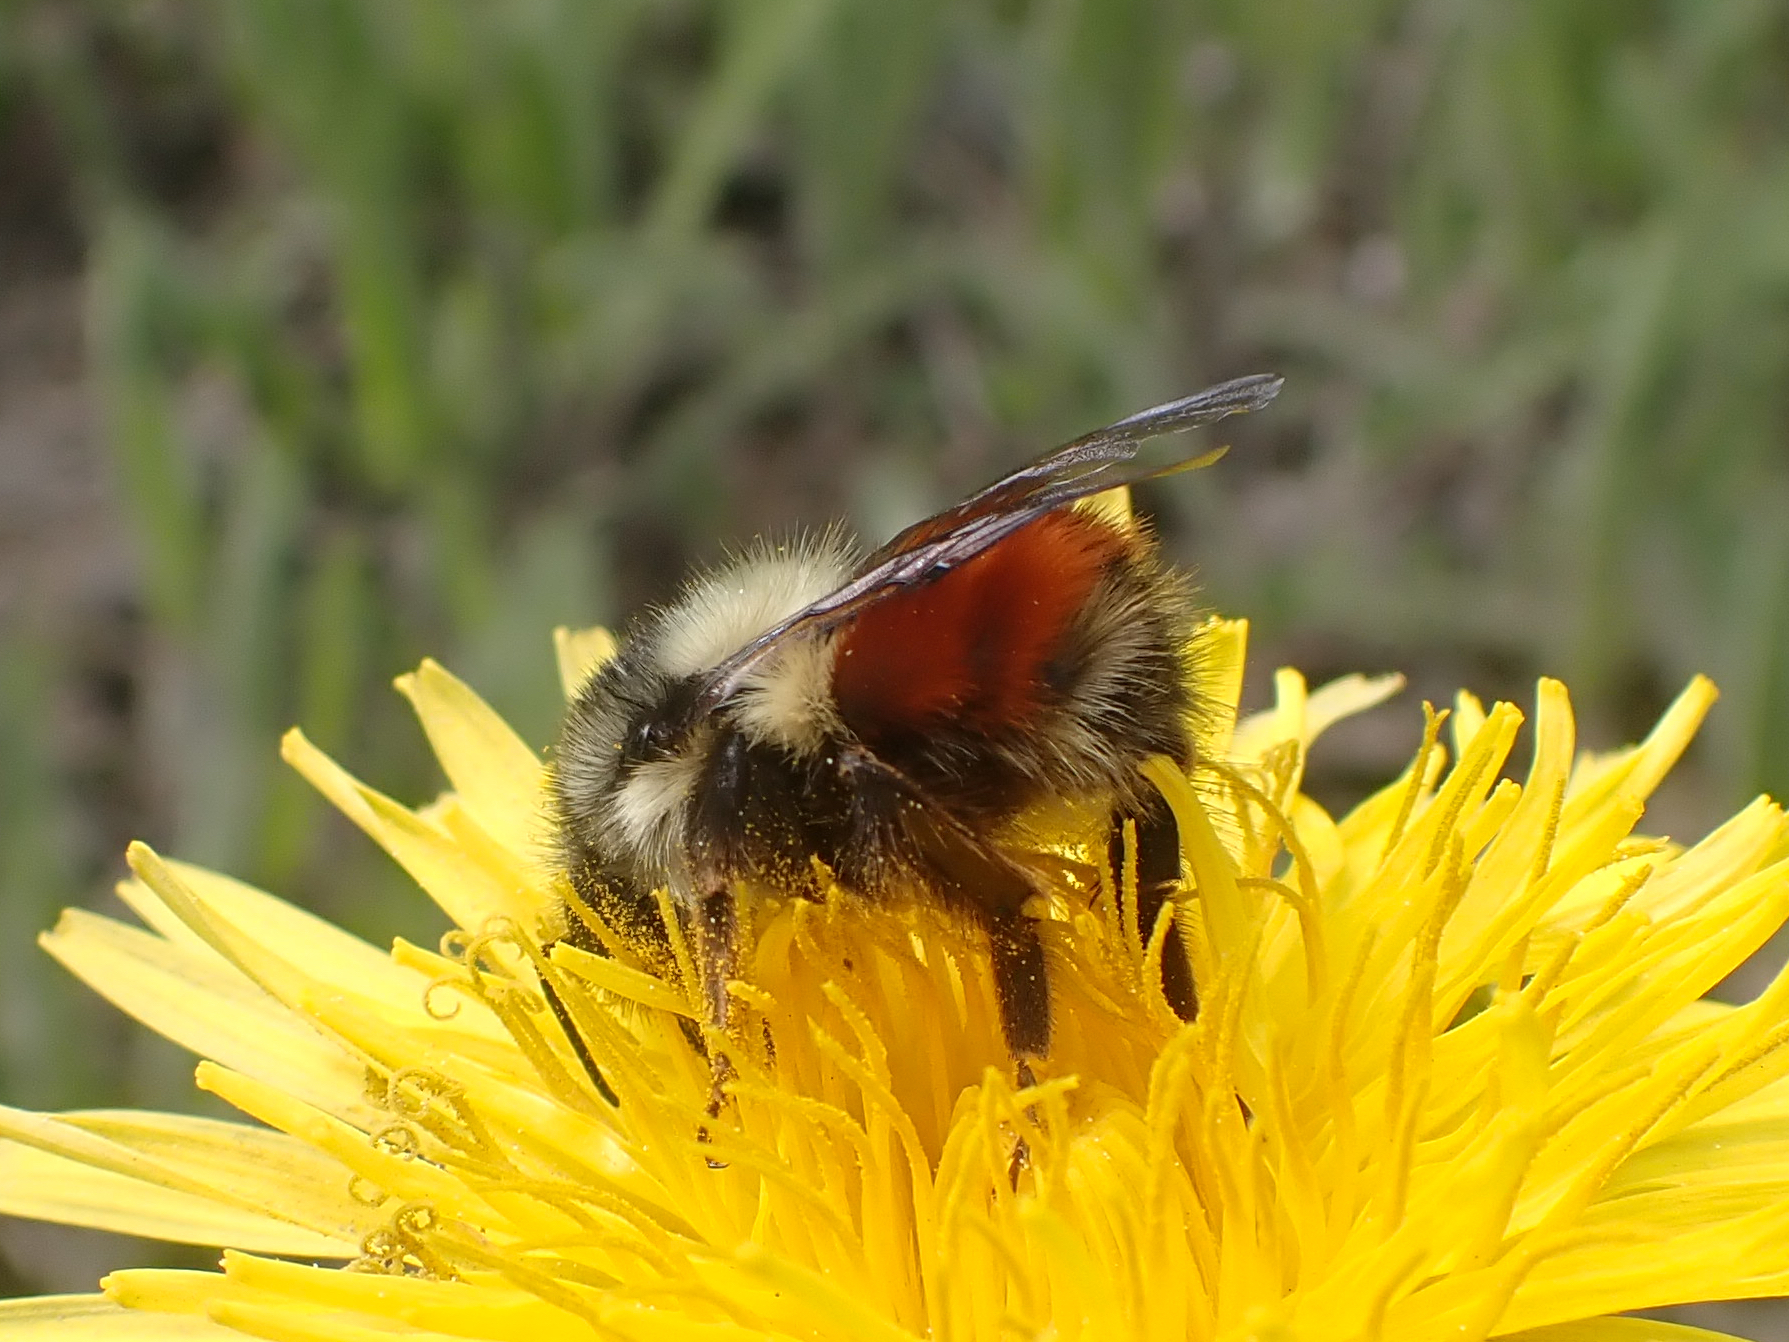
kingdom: Animalia
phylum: Arthropoda
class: Insecta
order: Hymenoptera
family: Apidae
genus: Bombus
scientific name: Bombus melanopygus
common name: Black tail bumble bee
